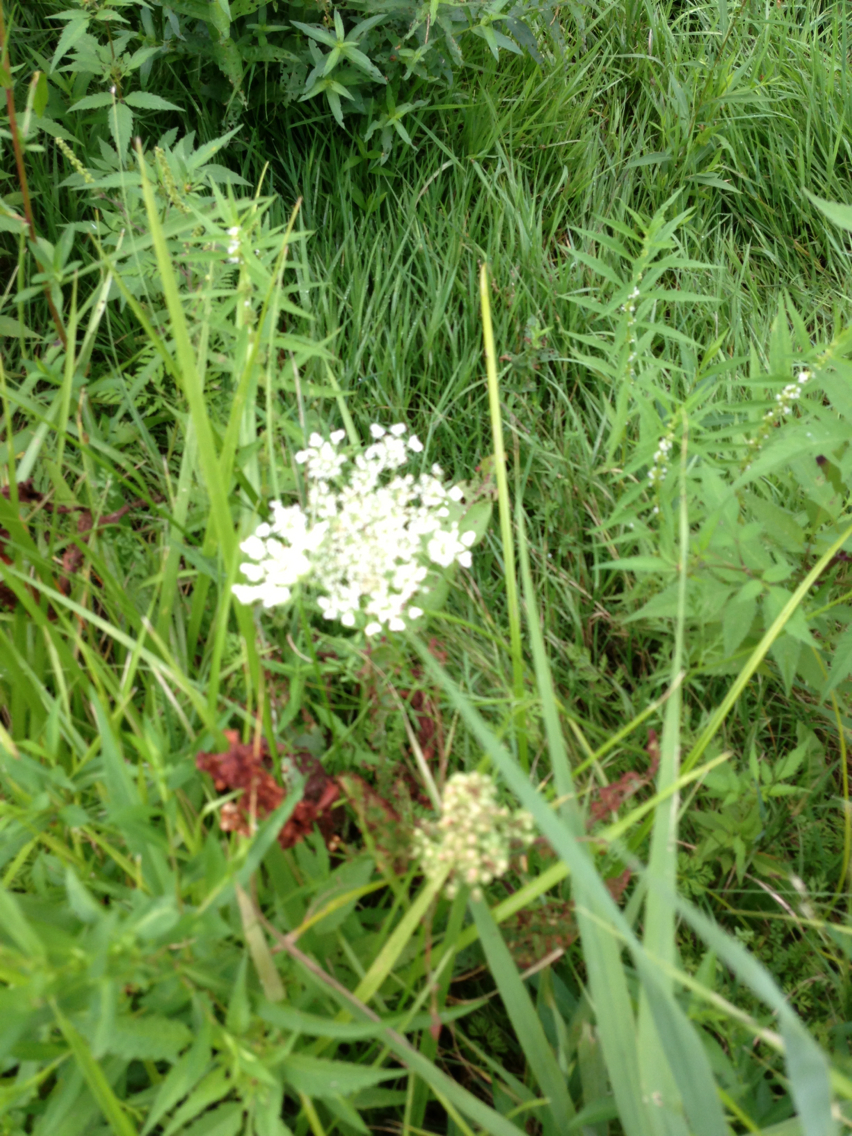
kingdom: Plantae
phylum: Tracheophyta
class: Magnoliopsida
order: Apiales
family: Apiaceae
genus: Daucus
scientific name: Daucus carota
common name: Wild carrot
